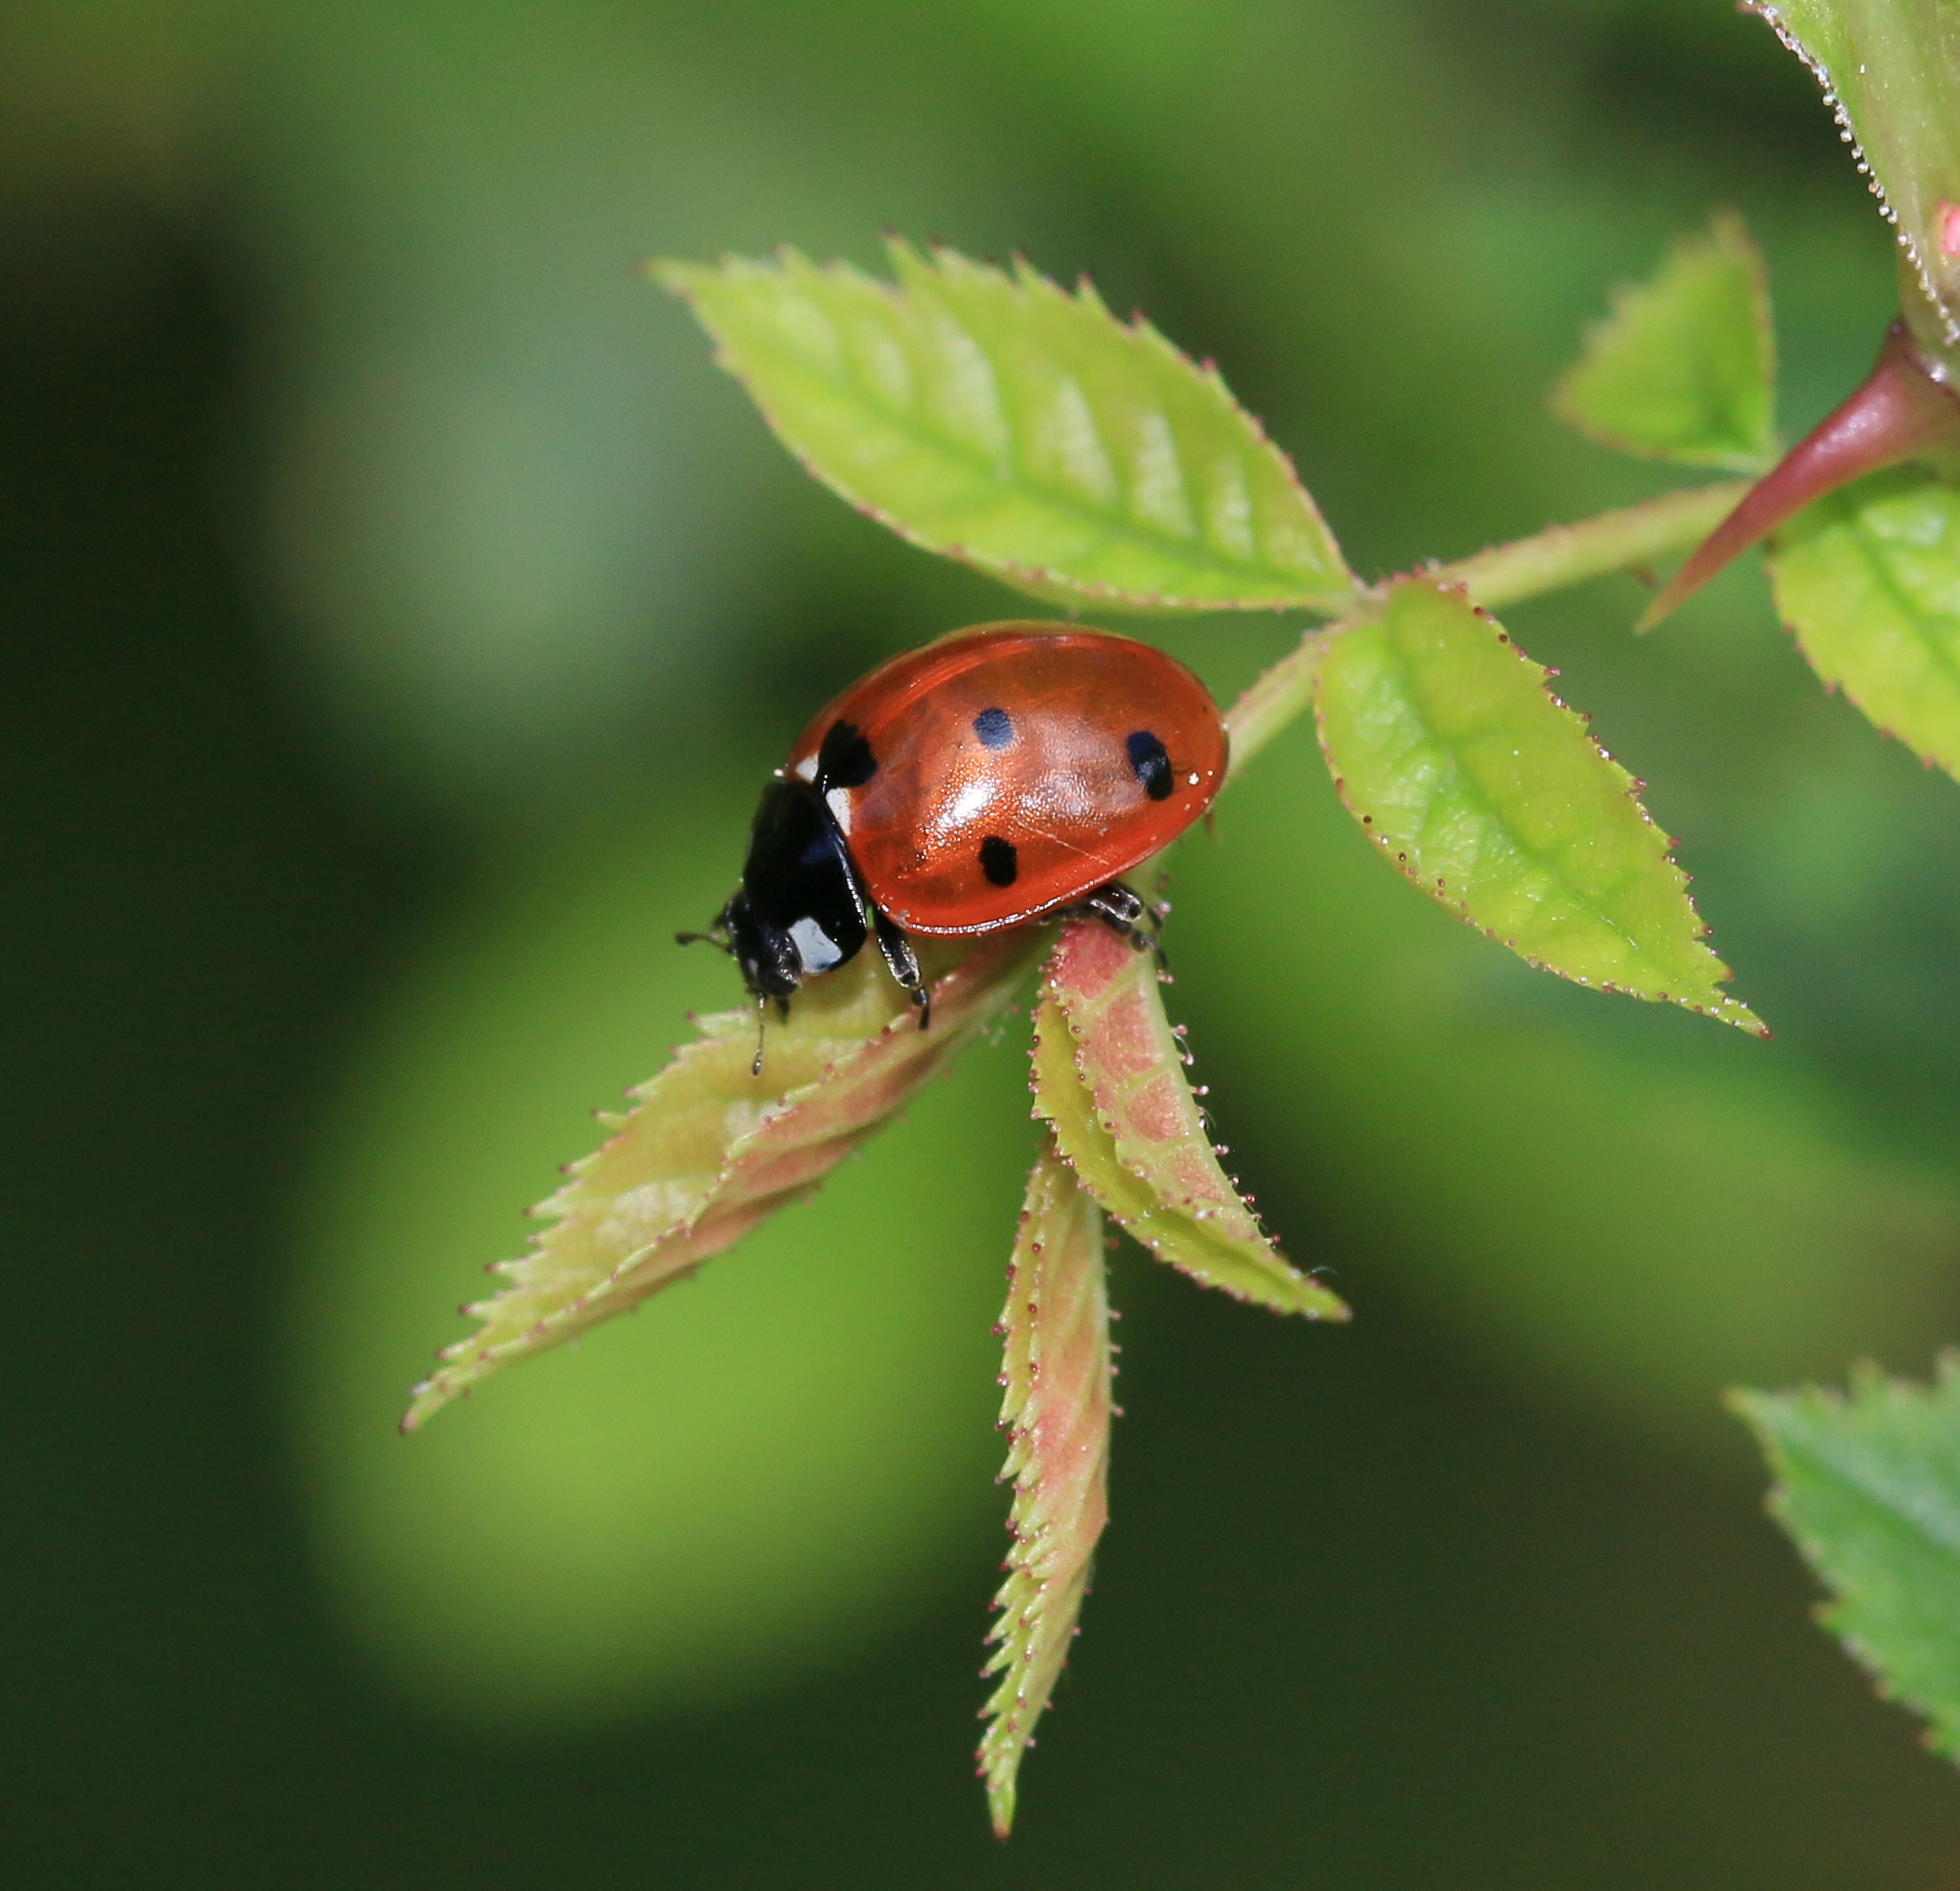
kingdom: Animalia
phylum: Arthropoda
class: Insecta
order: Coleoptera
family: Coccinellidae
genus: Coccinella
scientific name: Coccinella septempunctata
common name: Sevenspotted lady beetle
